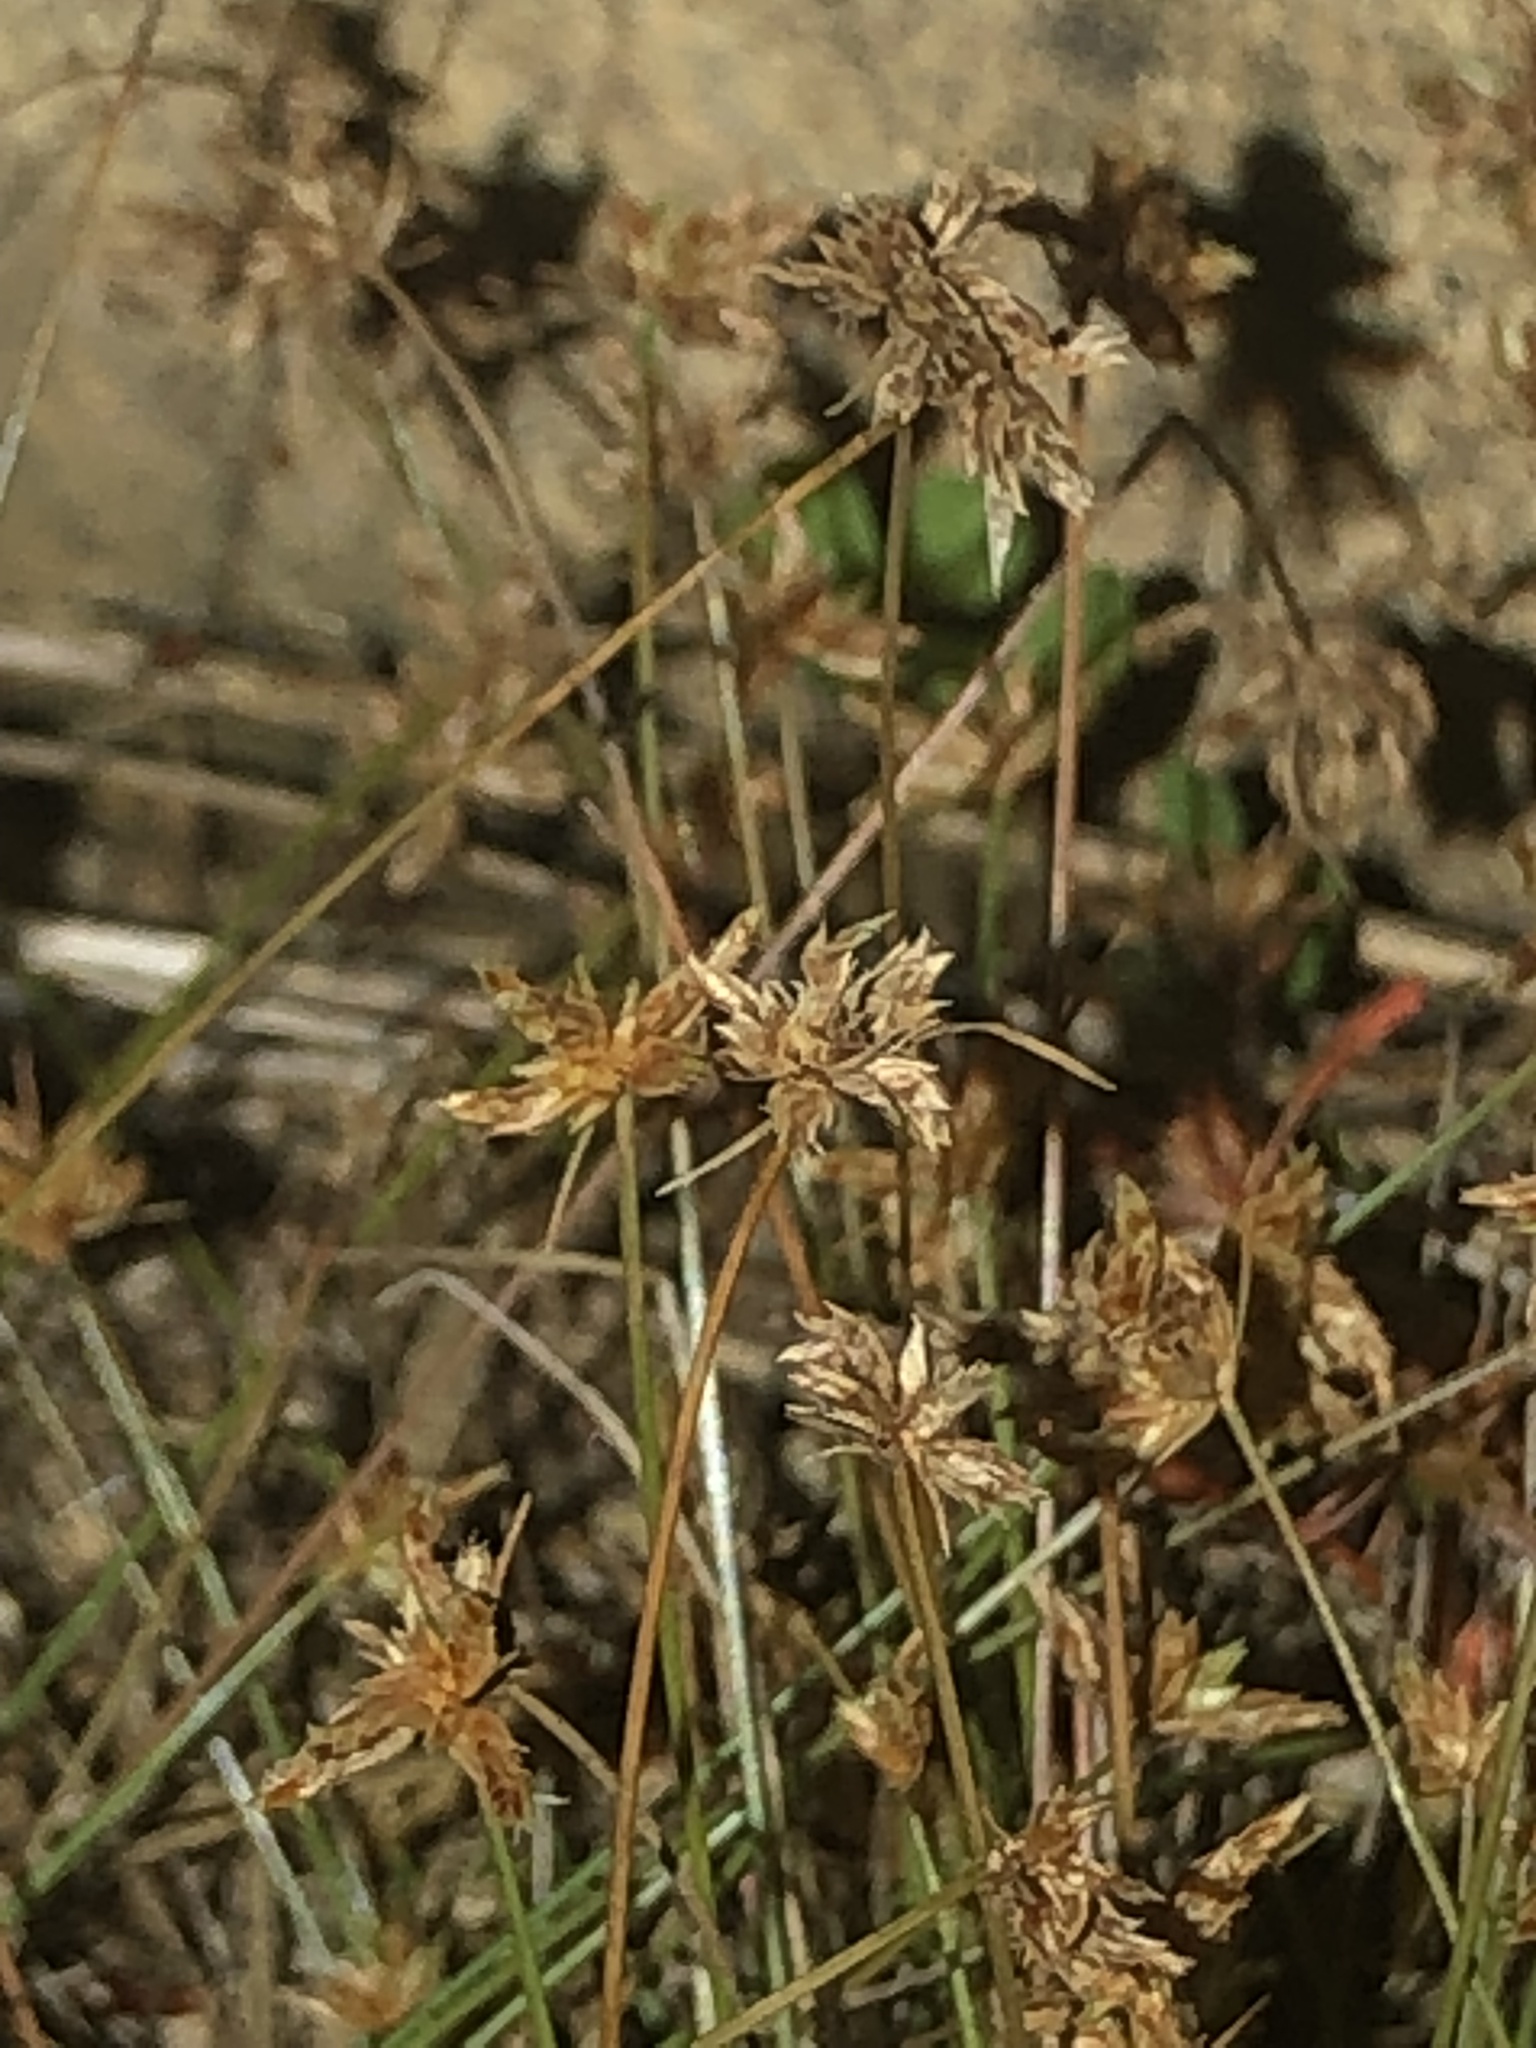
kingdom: Plantae
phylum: Tracheophyta
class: Liliopsida
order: Poales
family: Cyperaceae
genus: Bulbostylis
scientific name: Bulbostylis barbata
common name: Watergrass
